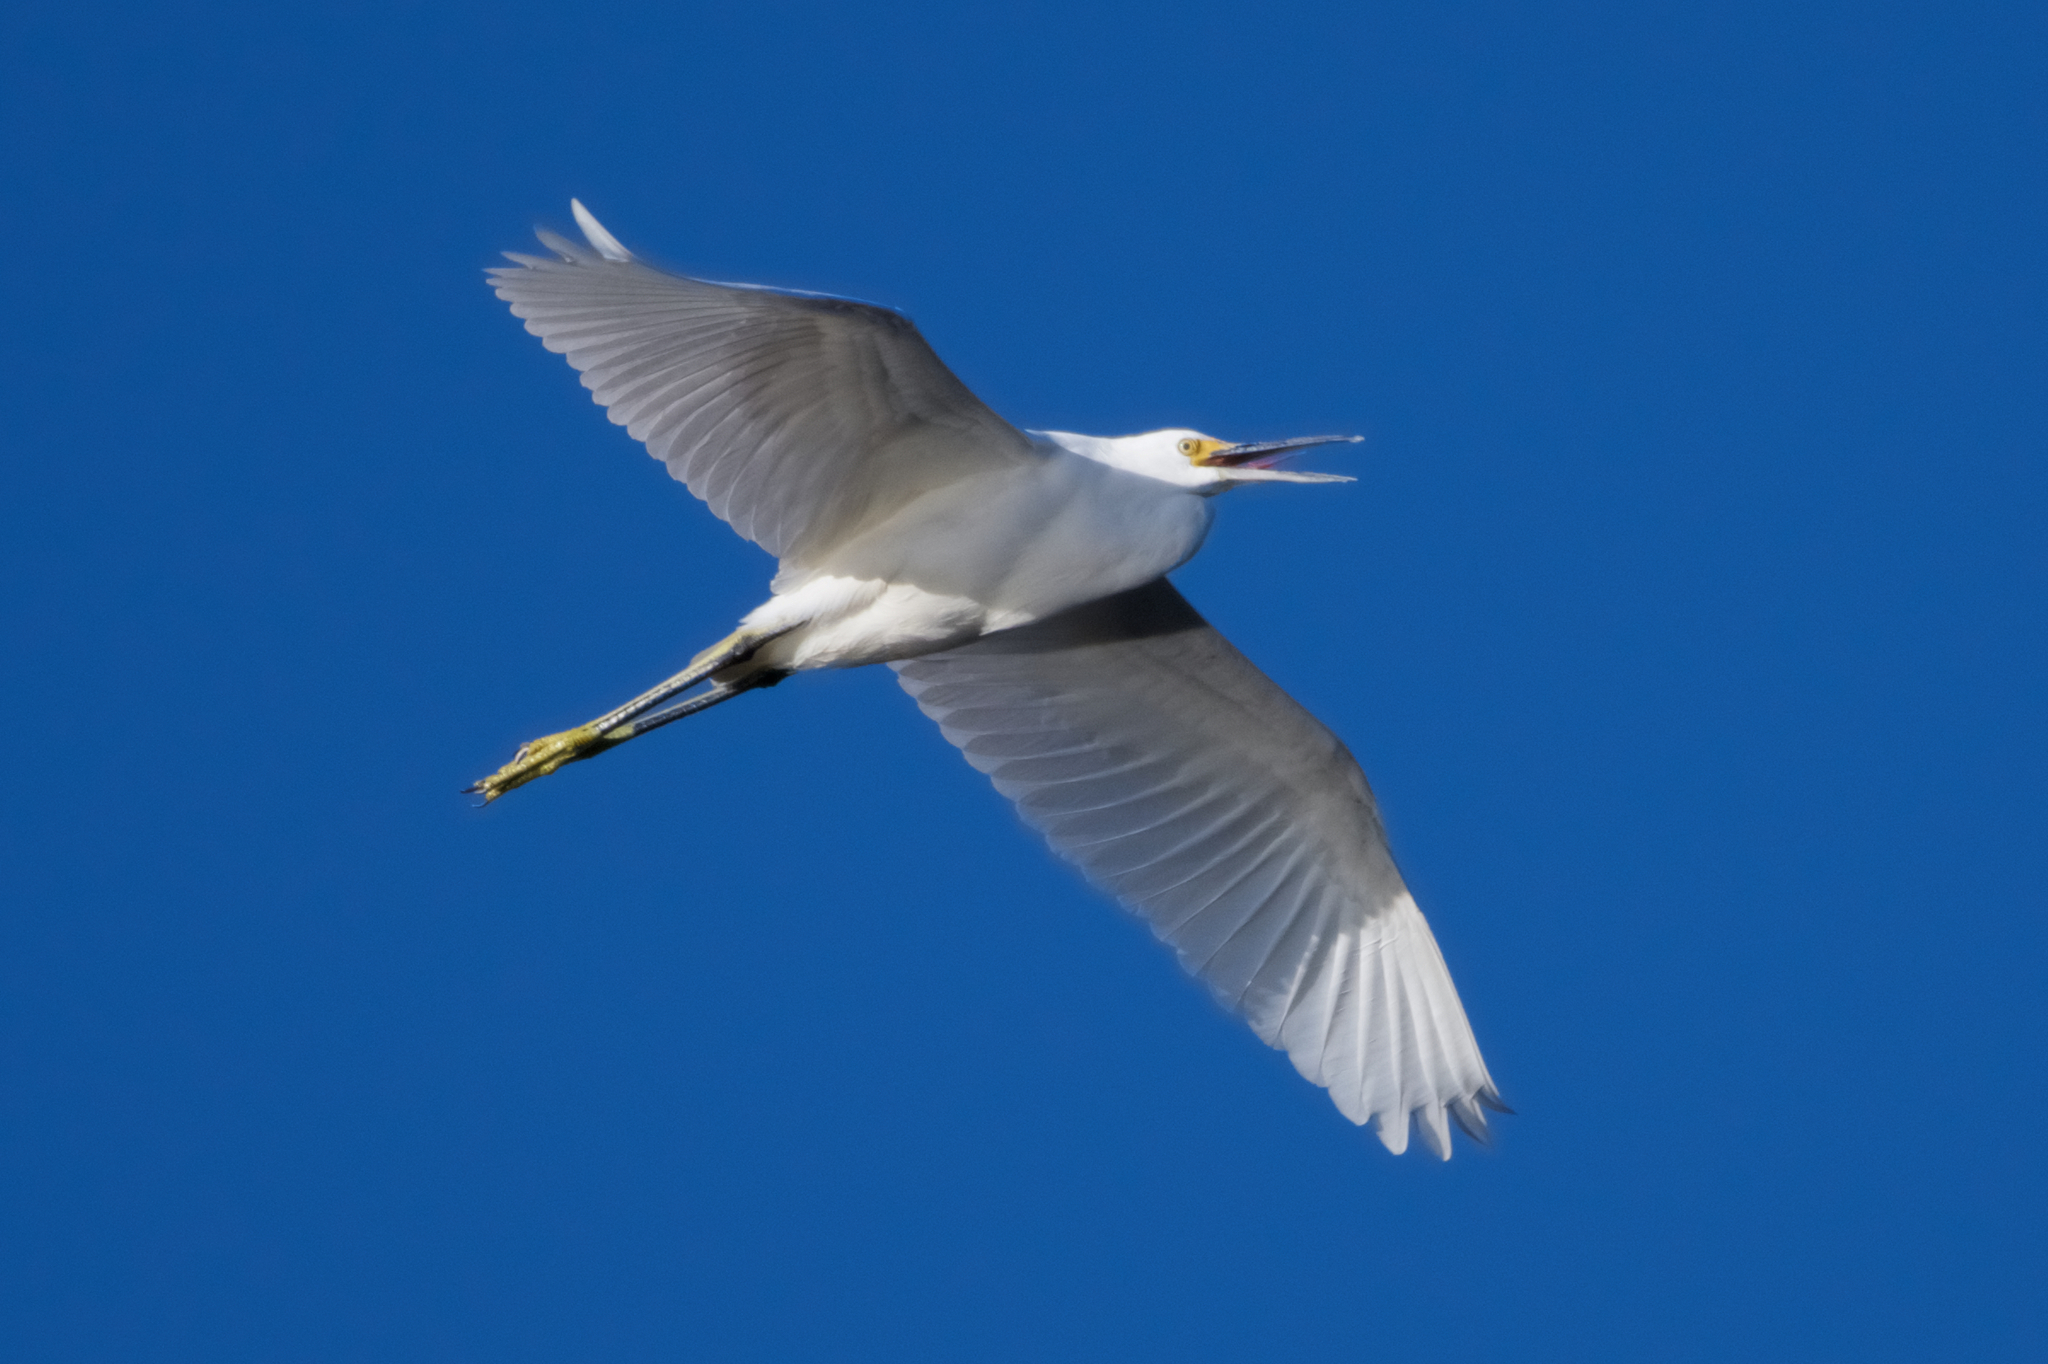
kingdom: Animalia
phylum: Chordata
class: Aves
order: Pelecaniformes
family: Ardeidae
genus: Egretta
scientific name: Egretta thula
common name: Snowy egret
